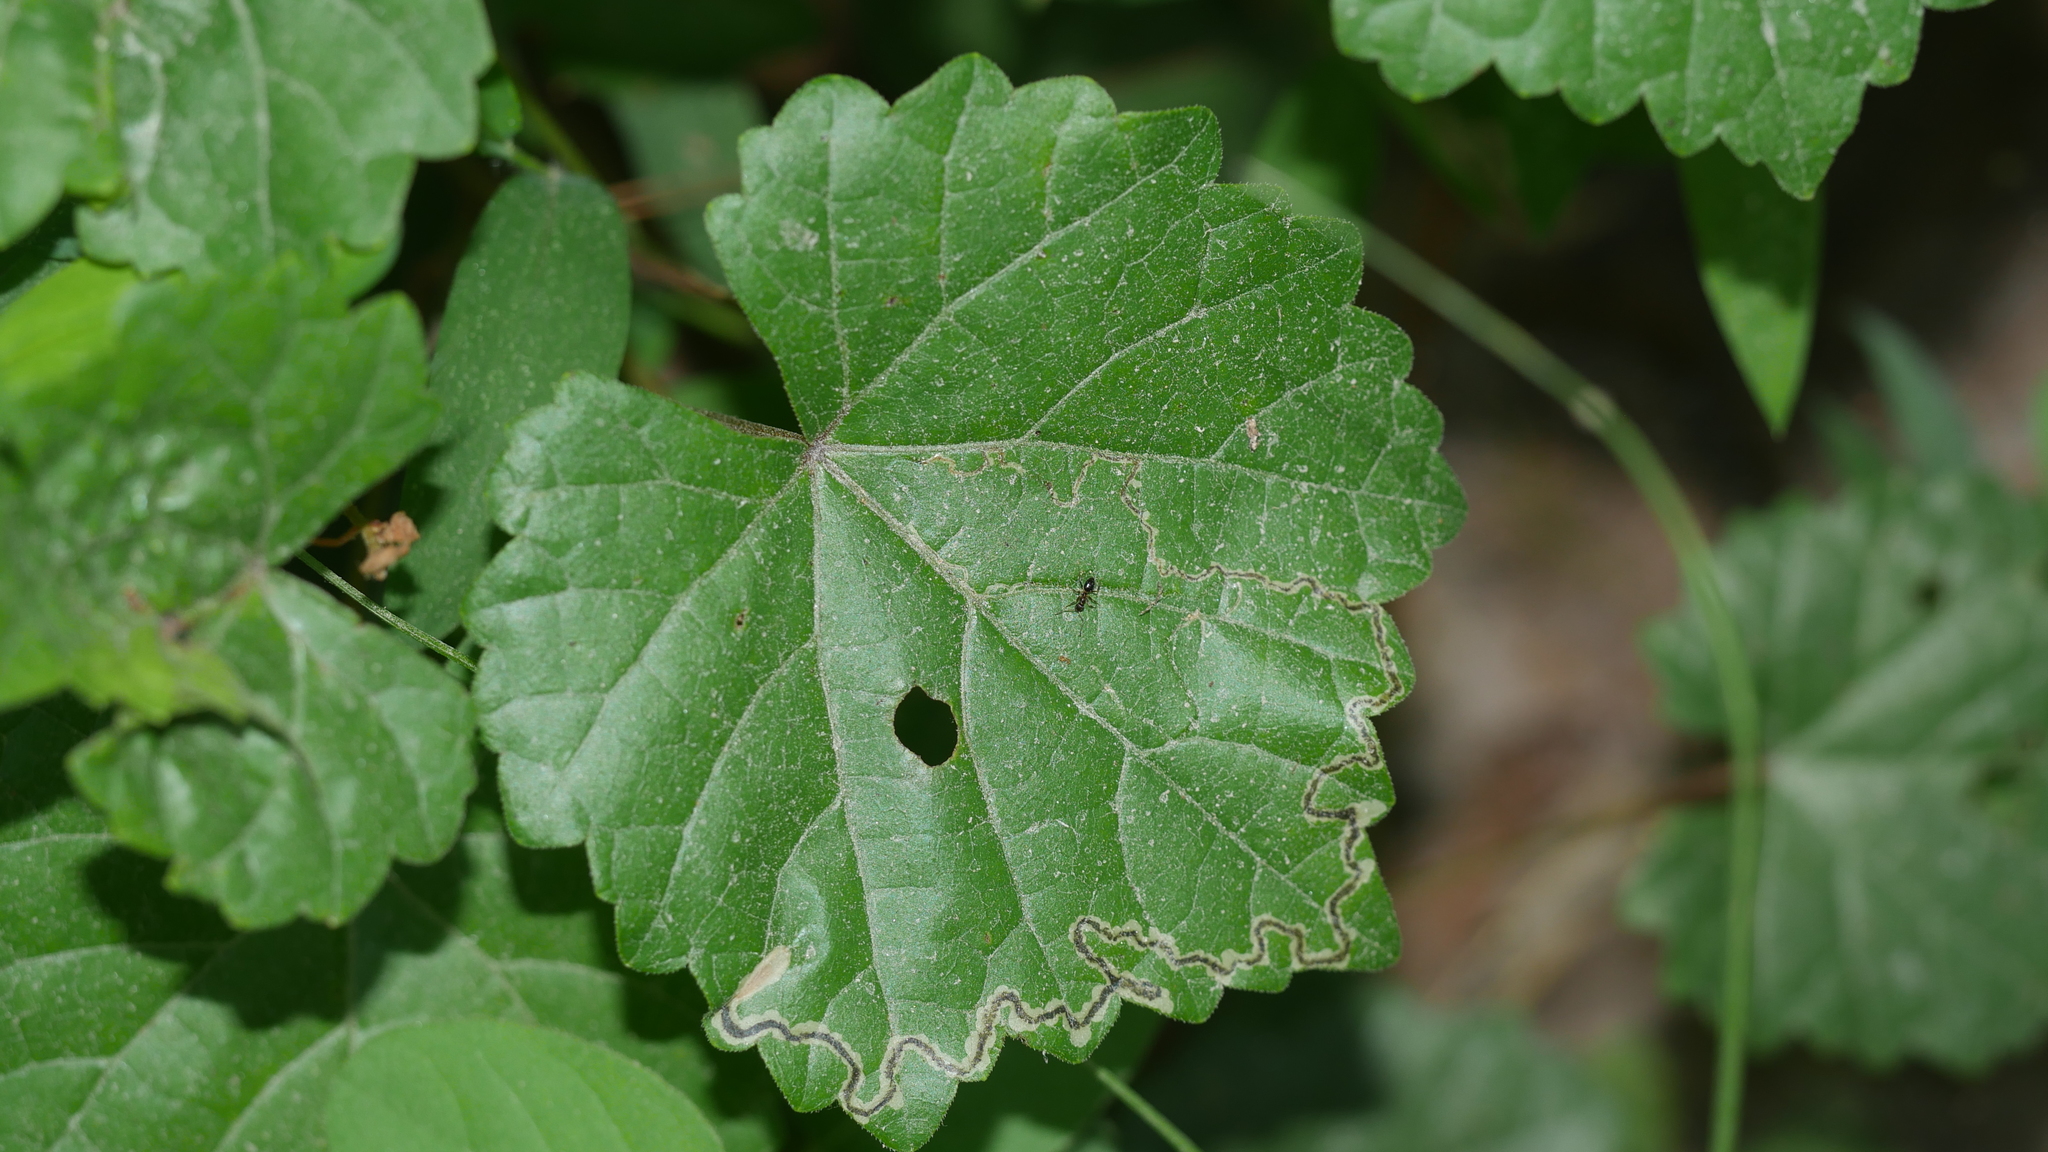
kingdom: Animalia
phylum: Arthropoda
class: Insecta
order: Lepidoptera
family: Gracillariidae
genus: Phyllocnistis
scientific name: Phyllocnistis vitifoliella
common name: Grape leaf-miner moth
